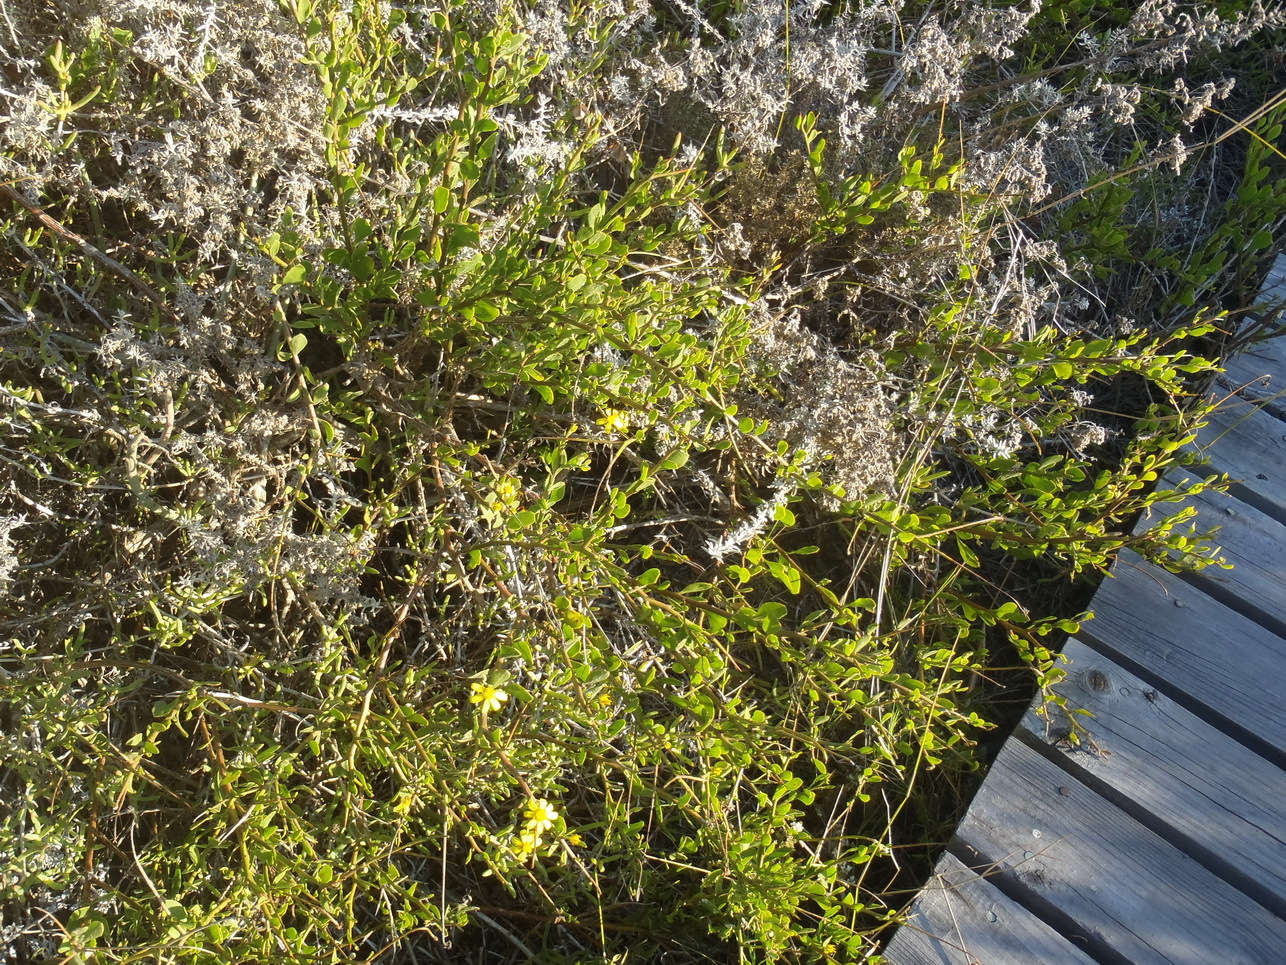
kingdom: Plantae
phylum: Tracheophyta
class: Magnoliopsida
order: Asterales
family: Asteraceae
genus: Osteospermum
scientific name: Osteospermum incanum
